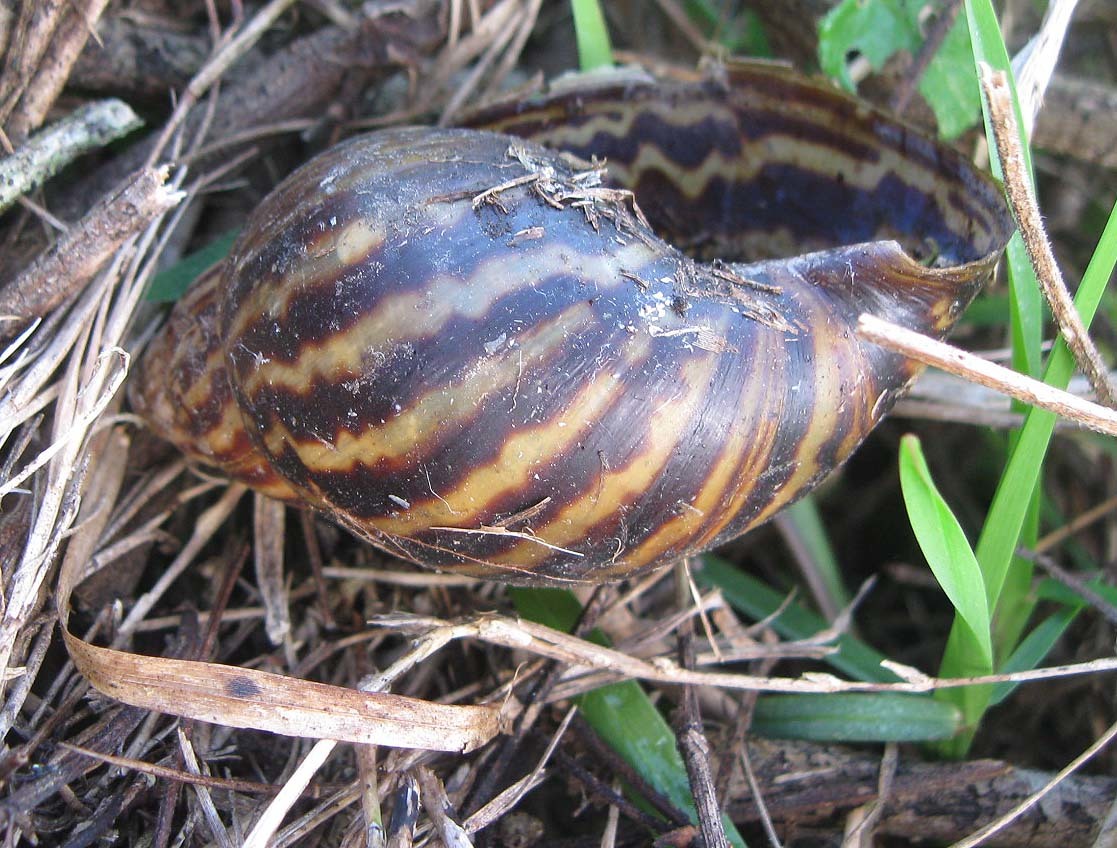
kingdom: Animalia
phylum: Mollusca
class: Gastropoda
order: Stylommatophora
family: Achatinidae
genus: Cochlitoma
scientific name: Cochlitoma zebra
